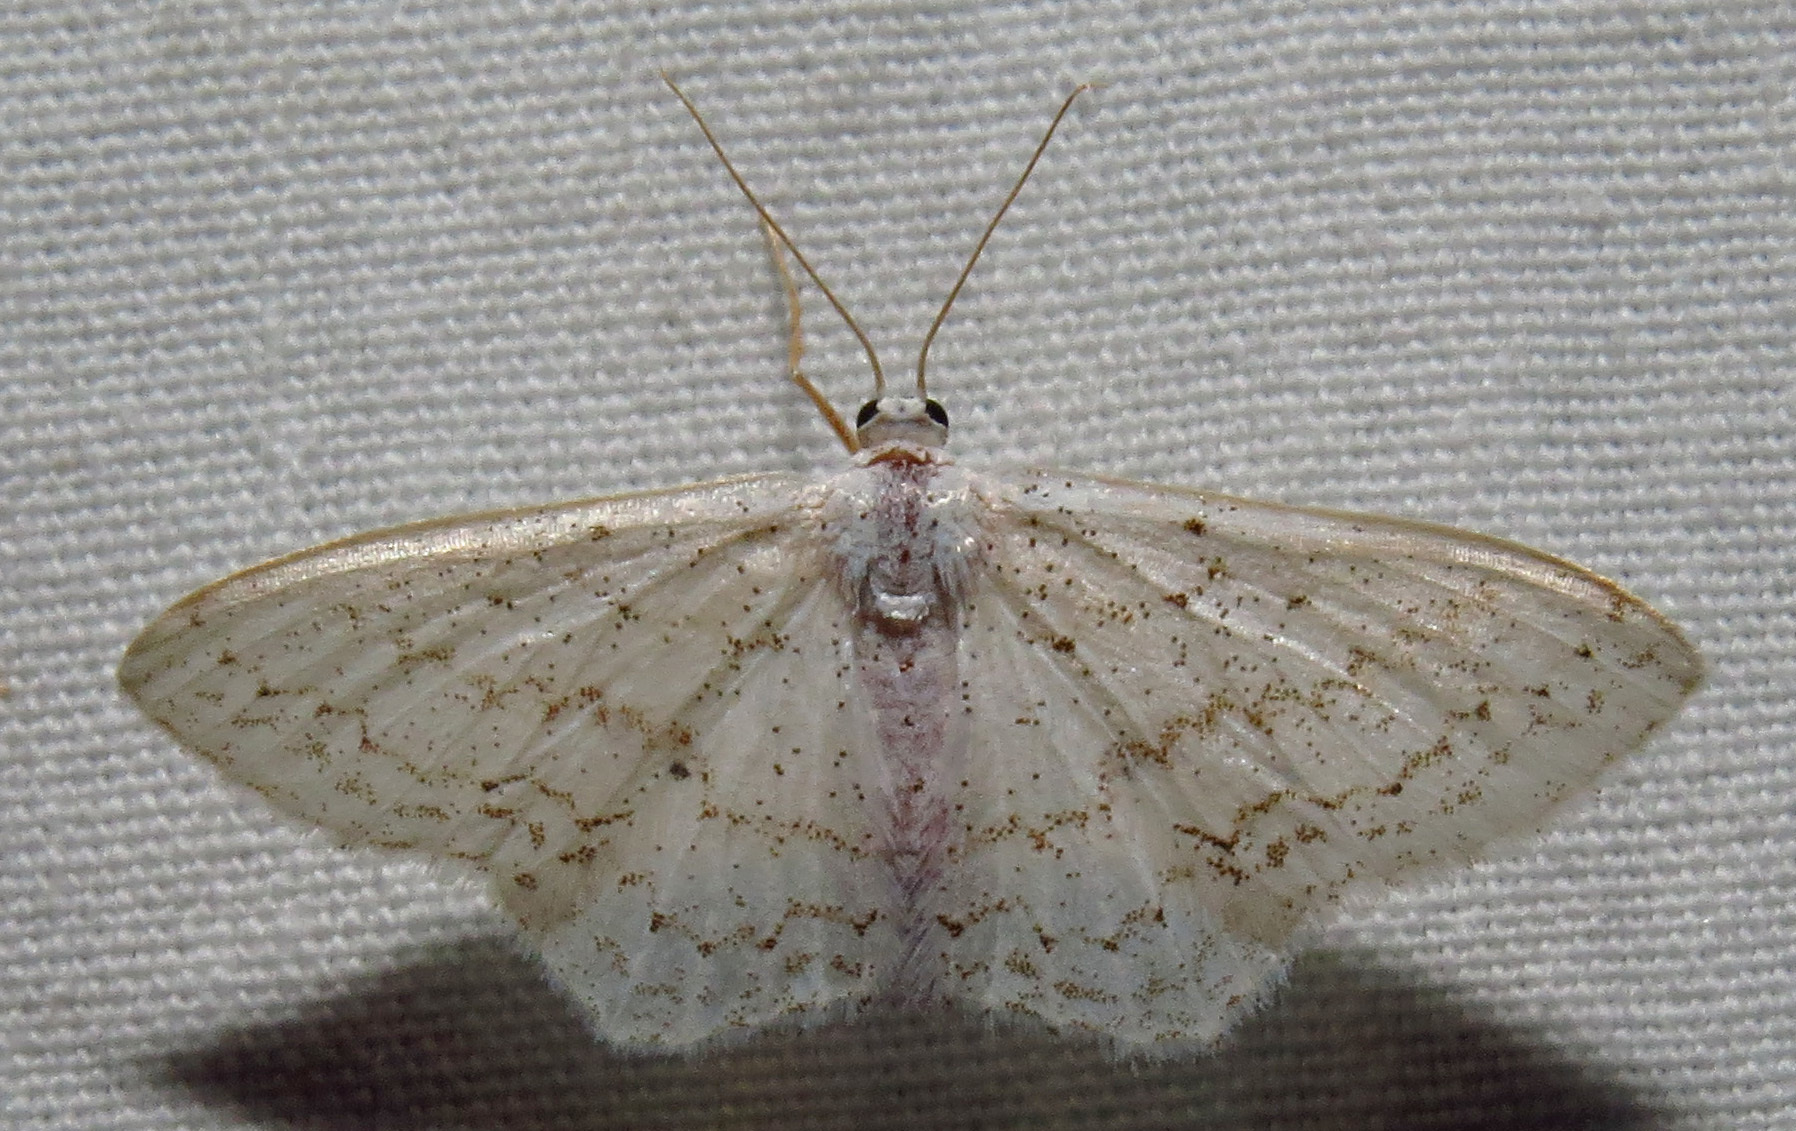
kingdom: Animalia
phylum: Arthropoda
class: Insecta
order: Lepidoptera
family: Geometridae
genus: Idaea
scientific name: Idaea tacturata
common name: Dot-lined wave
